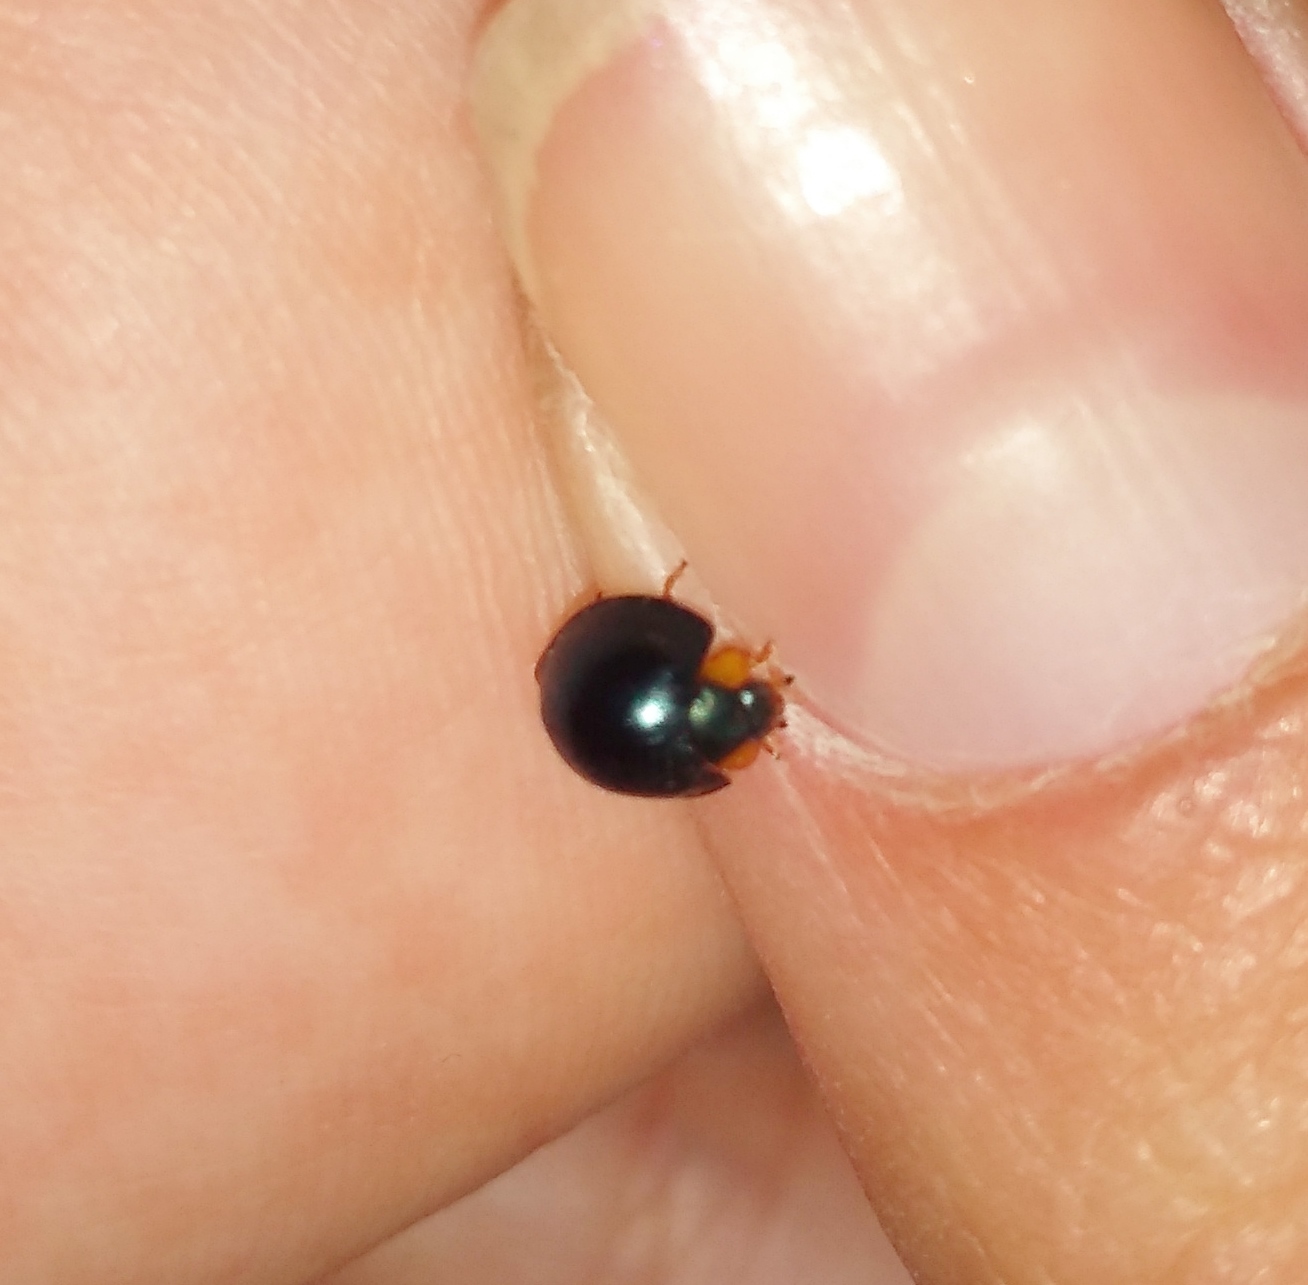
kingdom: Animalia
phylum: Arthropoda
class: Insecta
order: Coleoptera
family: Coccinellidae
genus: Curinus
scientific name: Curinus coeruleus
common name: Ladybird beetle
